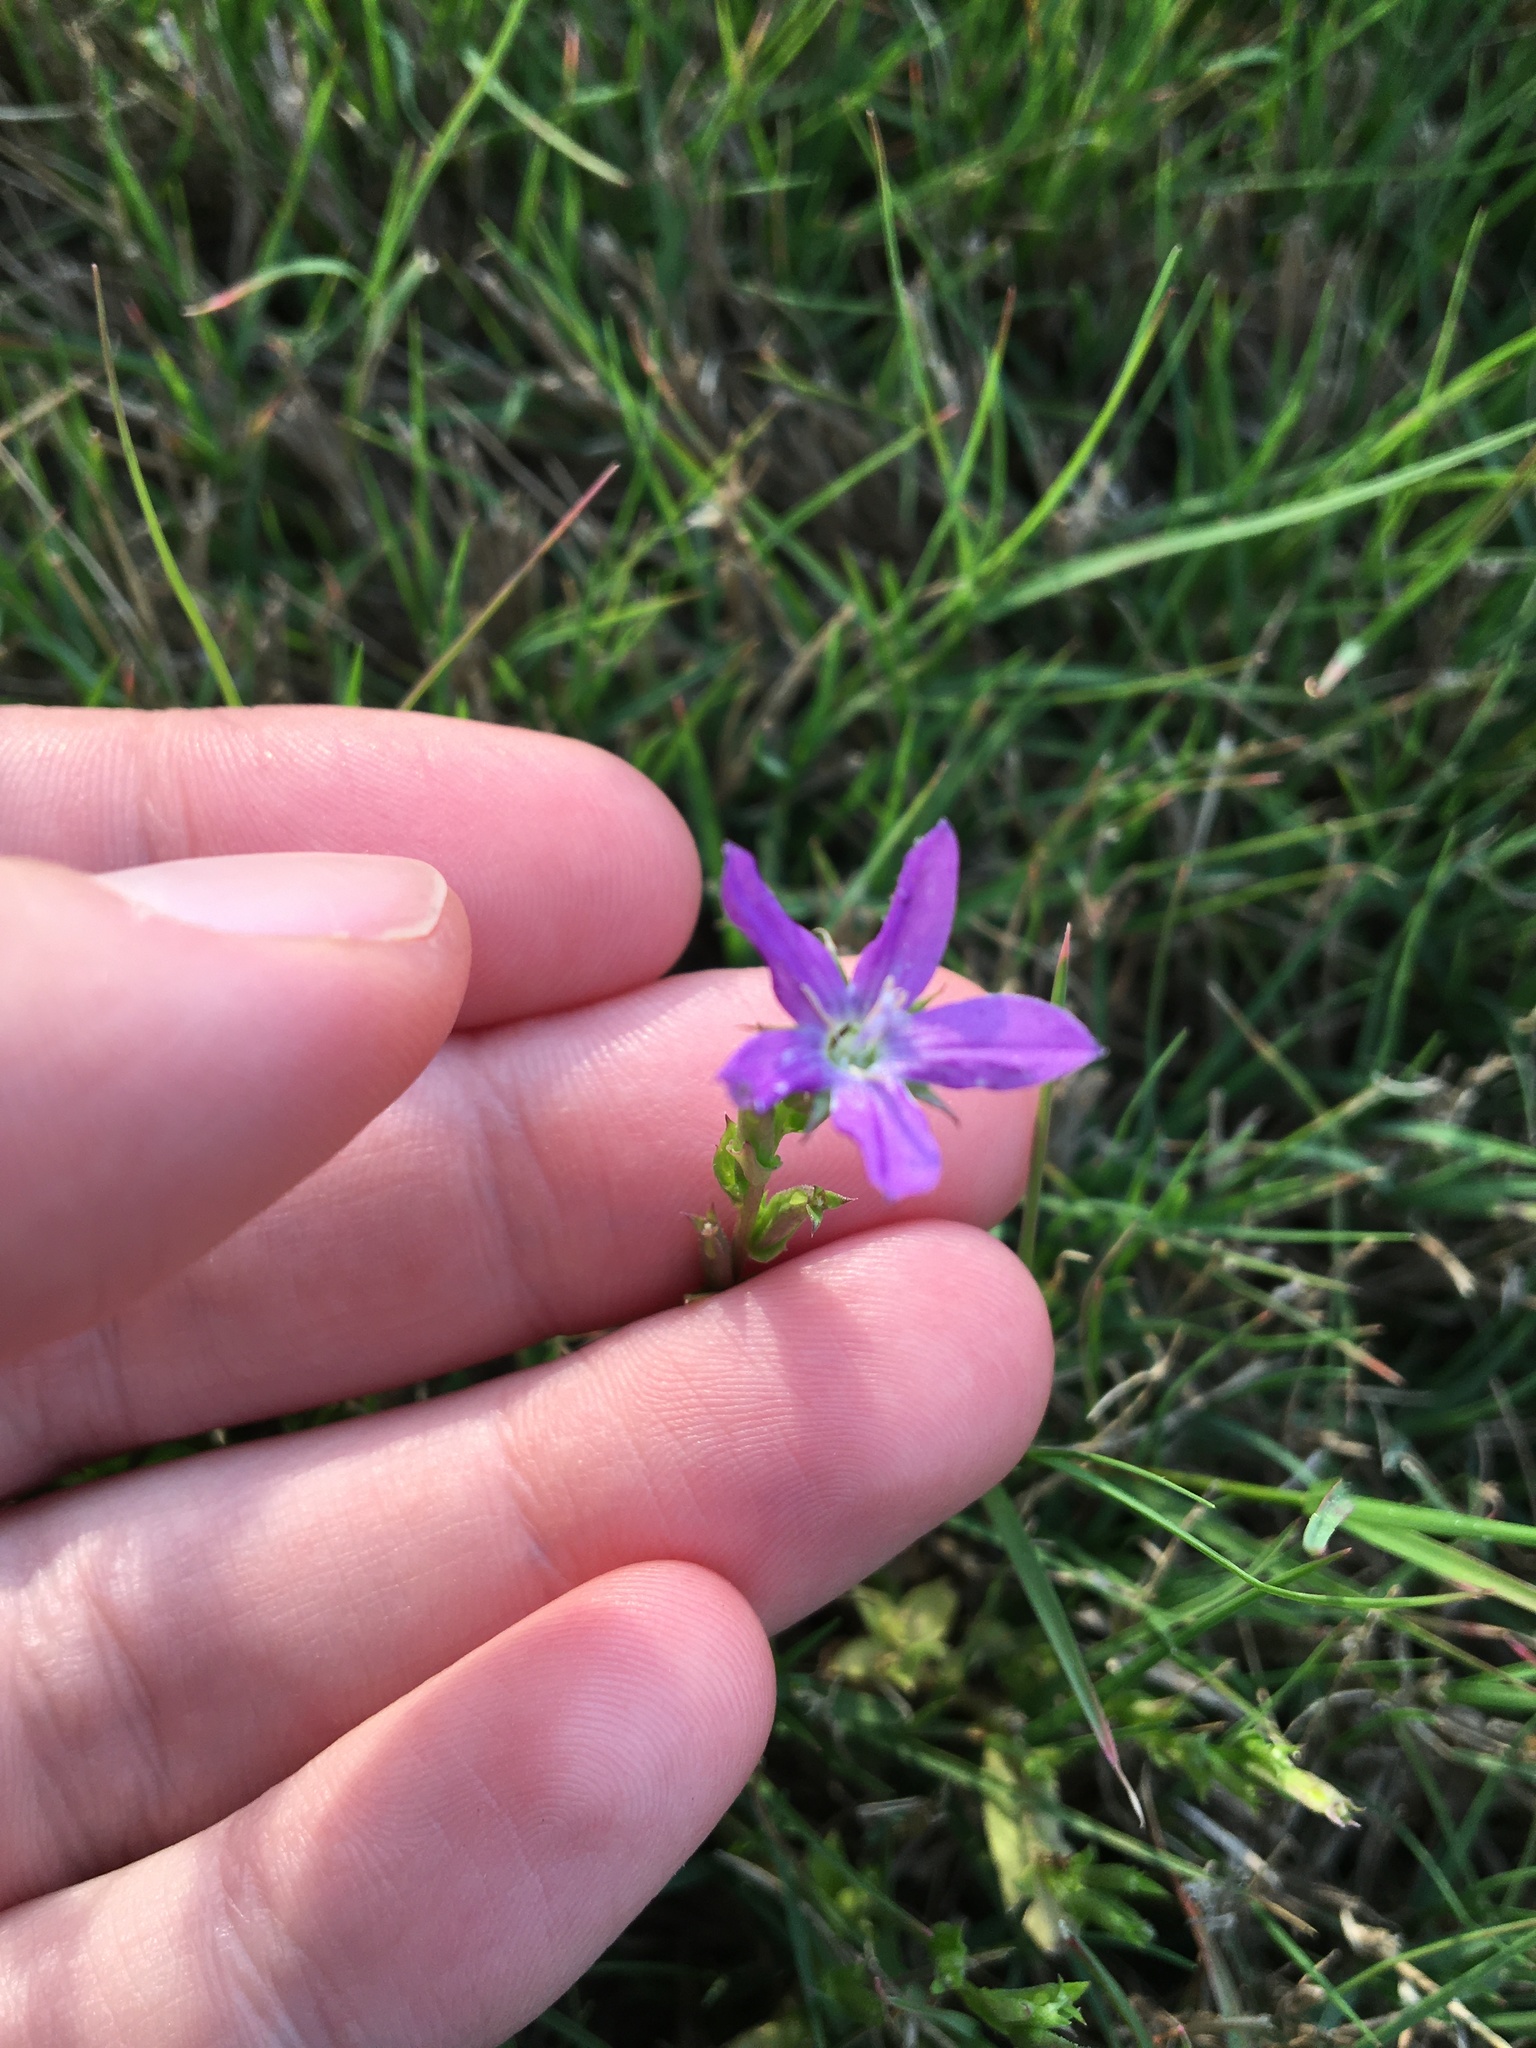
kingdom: Plantae
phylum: Tracheophyta
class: Magnoliopsida
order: Asterales
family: Campanulaceae
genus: Triodanis
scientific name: Triodanis biflora
